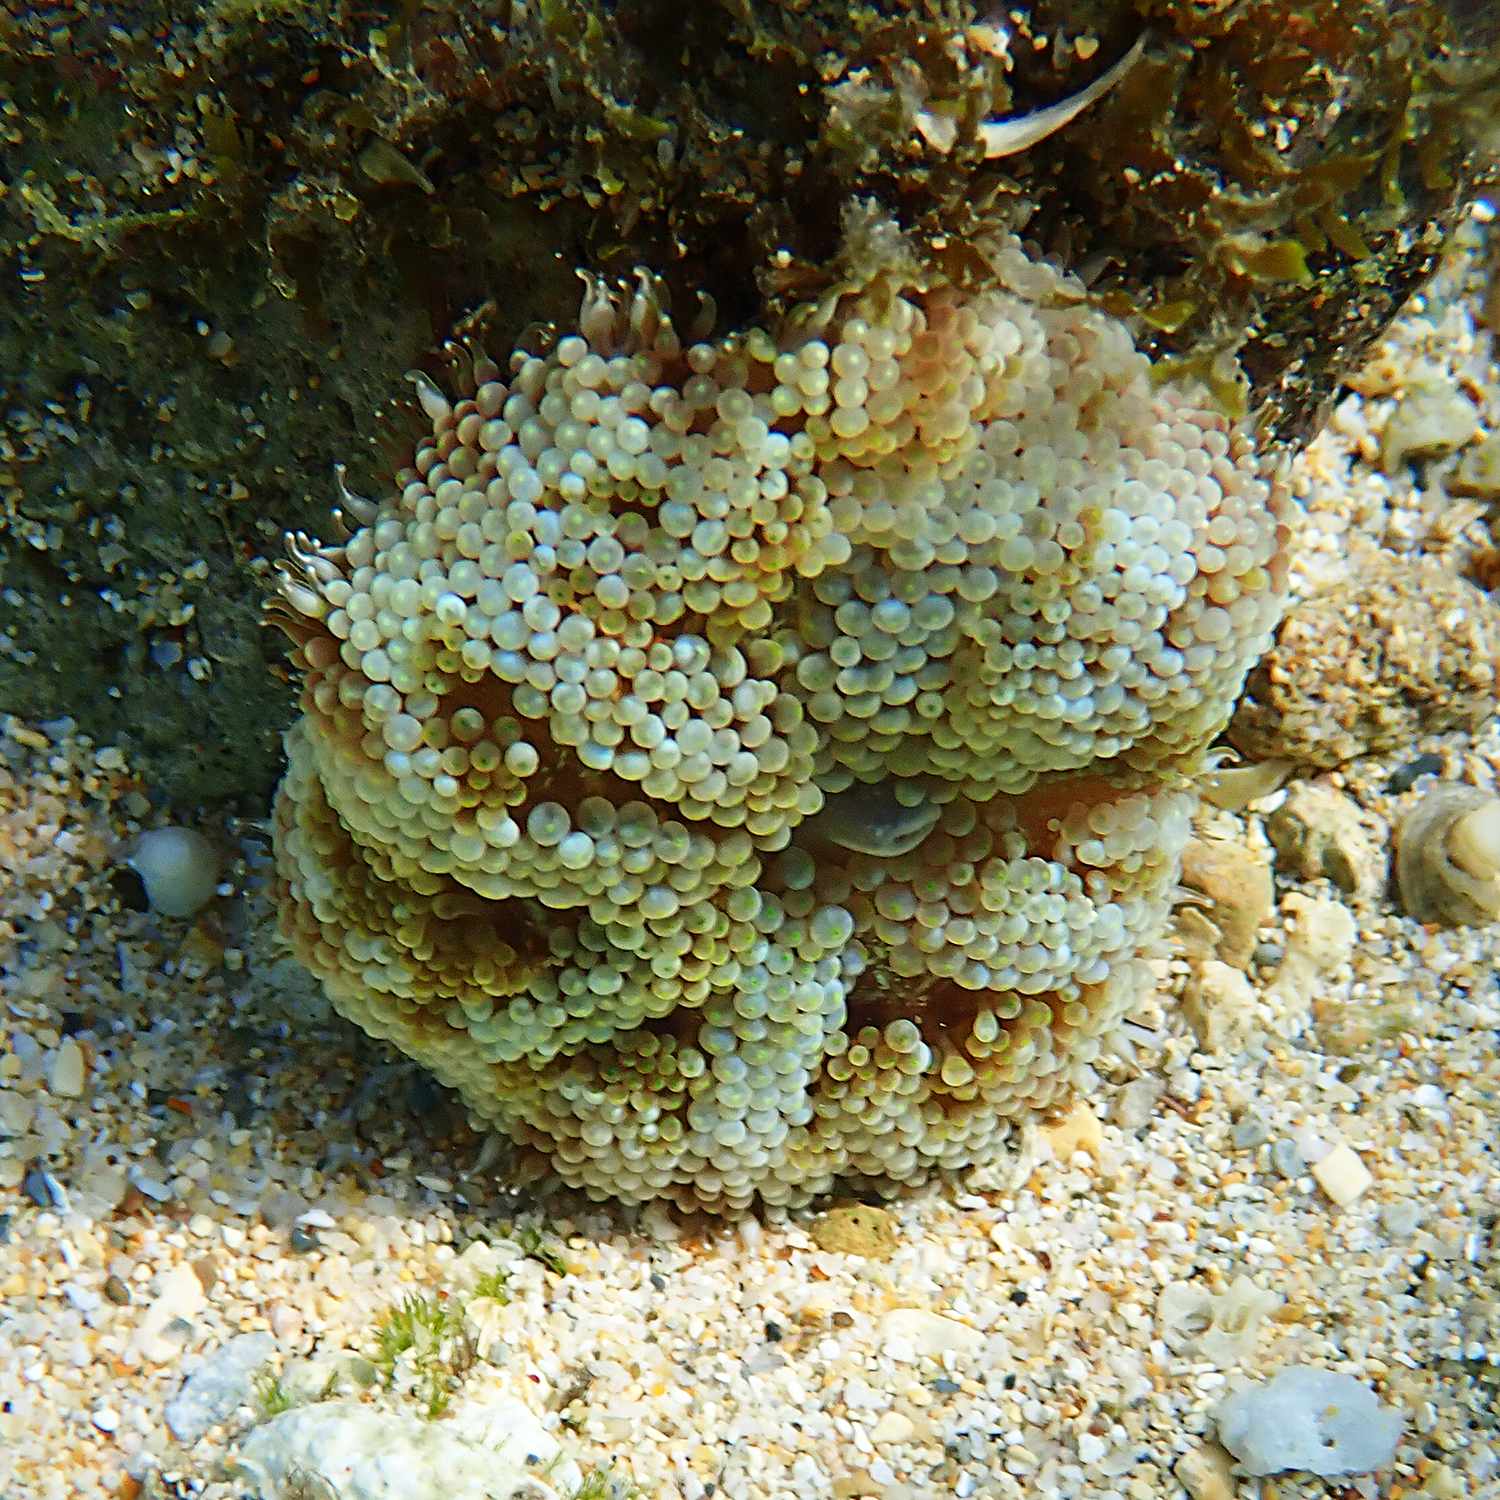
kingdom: Animalia
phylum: Cnidaria
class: Anthozoa
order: Actiniaria
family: Stichodactylidae
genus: Stichodactyla
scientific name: Stichodactyla tapetum
